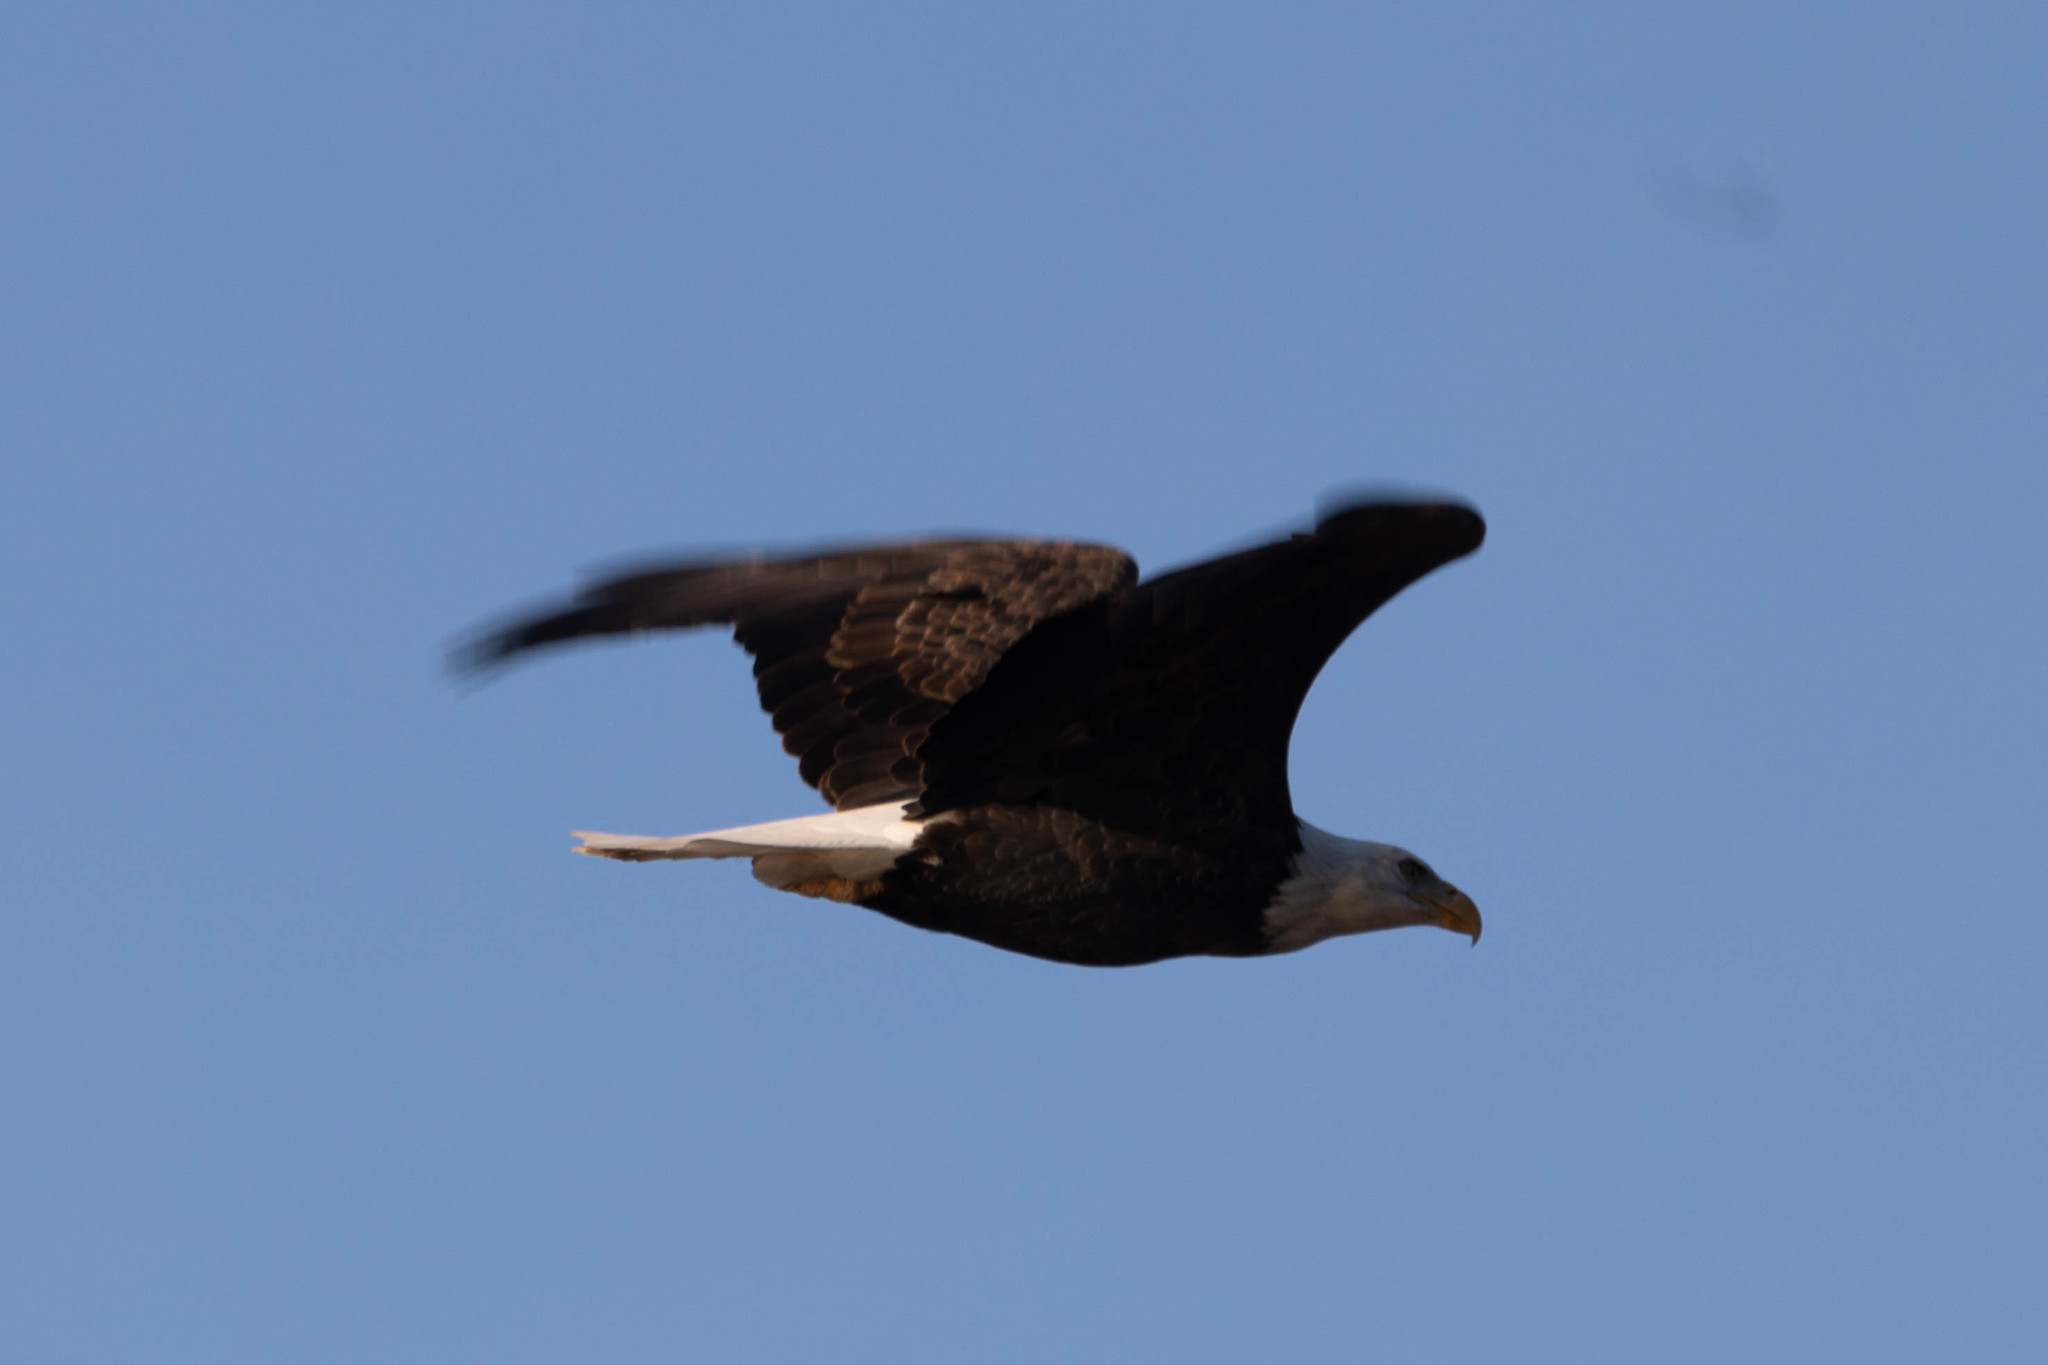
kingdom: Animalia
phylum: Chordata
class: Aves
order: Accipitriformes
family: Accipitridae
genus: Haliaeetus
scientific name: Haliaeetus leucocephalus
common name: Bald eagle
